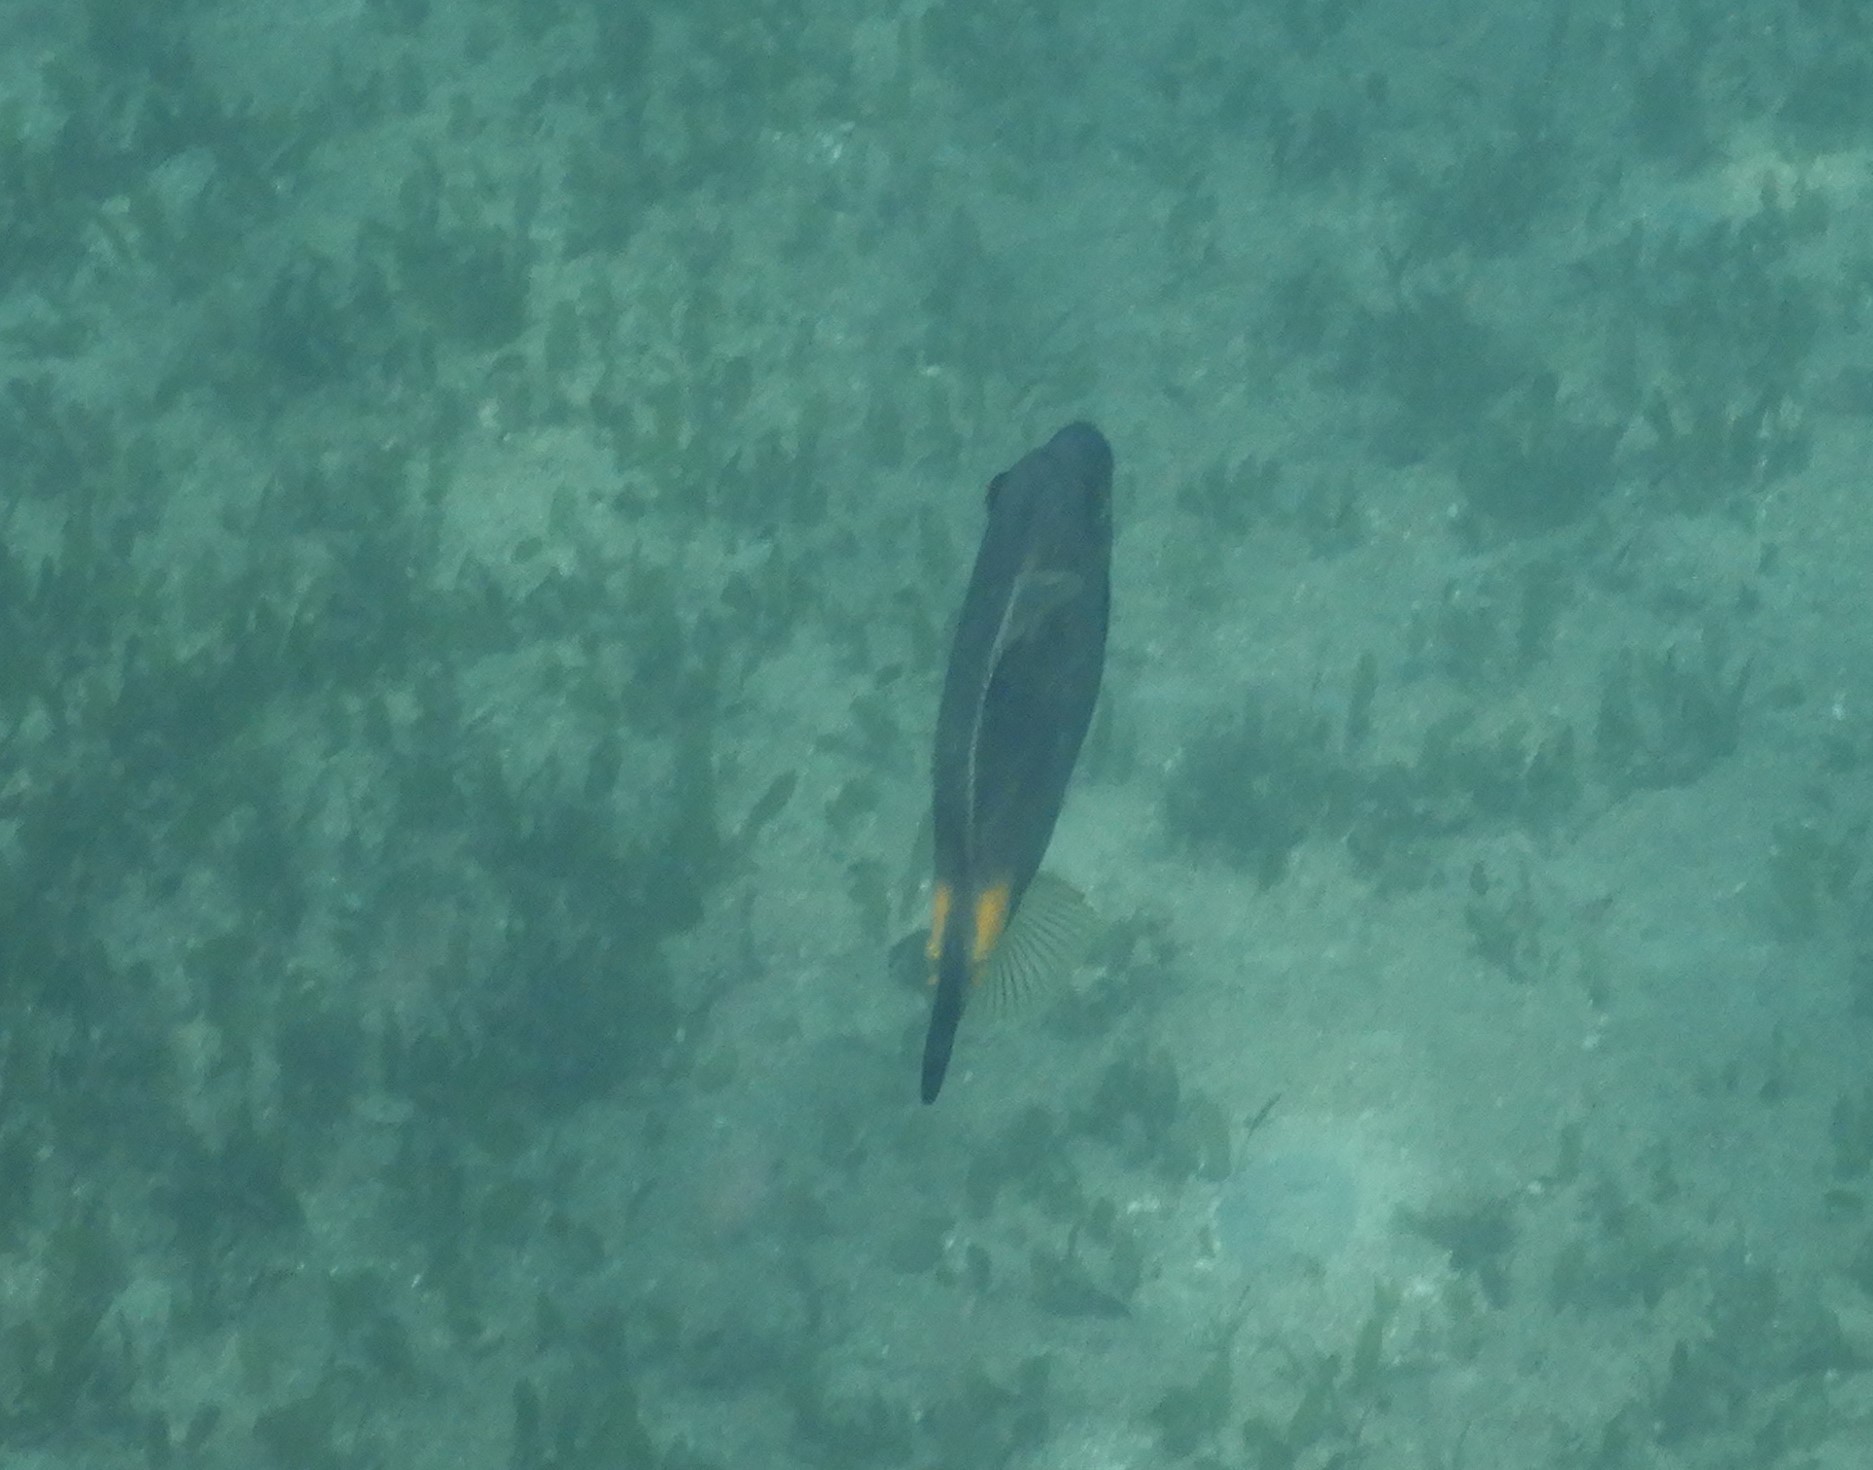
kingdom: Animalia
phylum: Chordata
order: Tetraodontiformes
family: Monacanthidae
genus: Meuschenia
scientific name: Meuschenia flavolineata
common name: Yellowstriped leatherjacket
